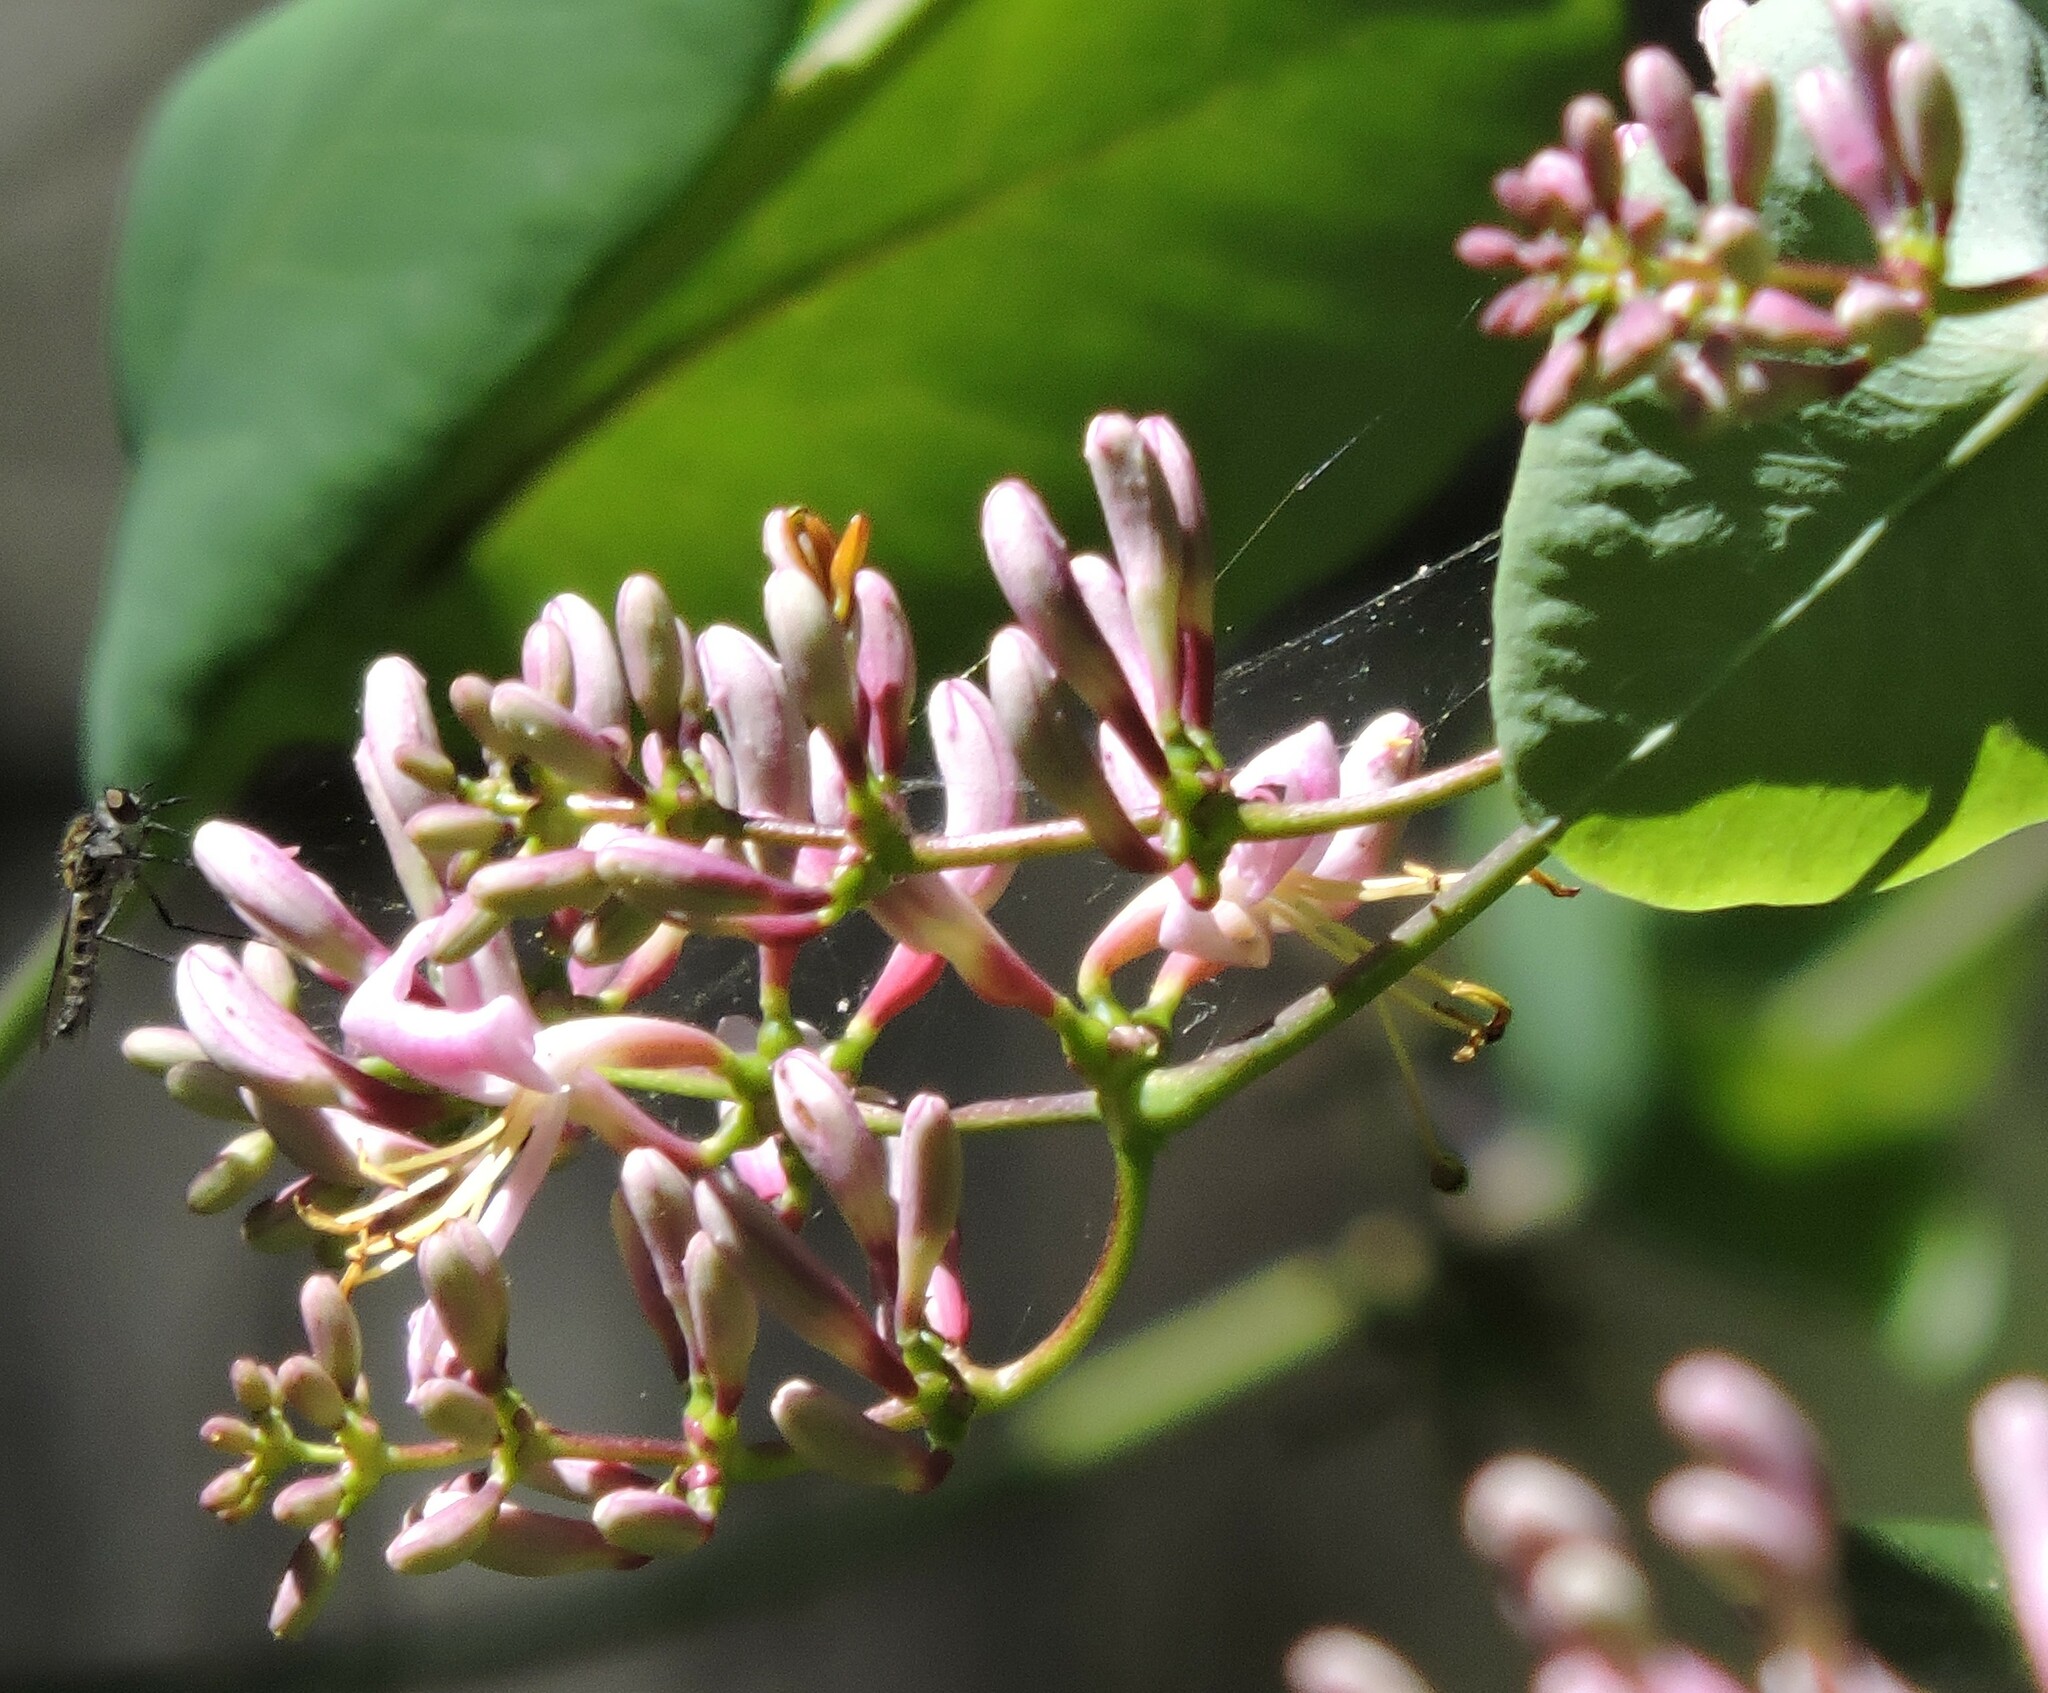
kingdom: Plantae
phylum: Tracheophyta
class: Magnoliopsida
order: Dipsacales
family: Caprifoliaceae
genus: Lonicera
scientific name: Lonicera hispidula
